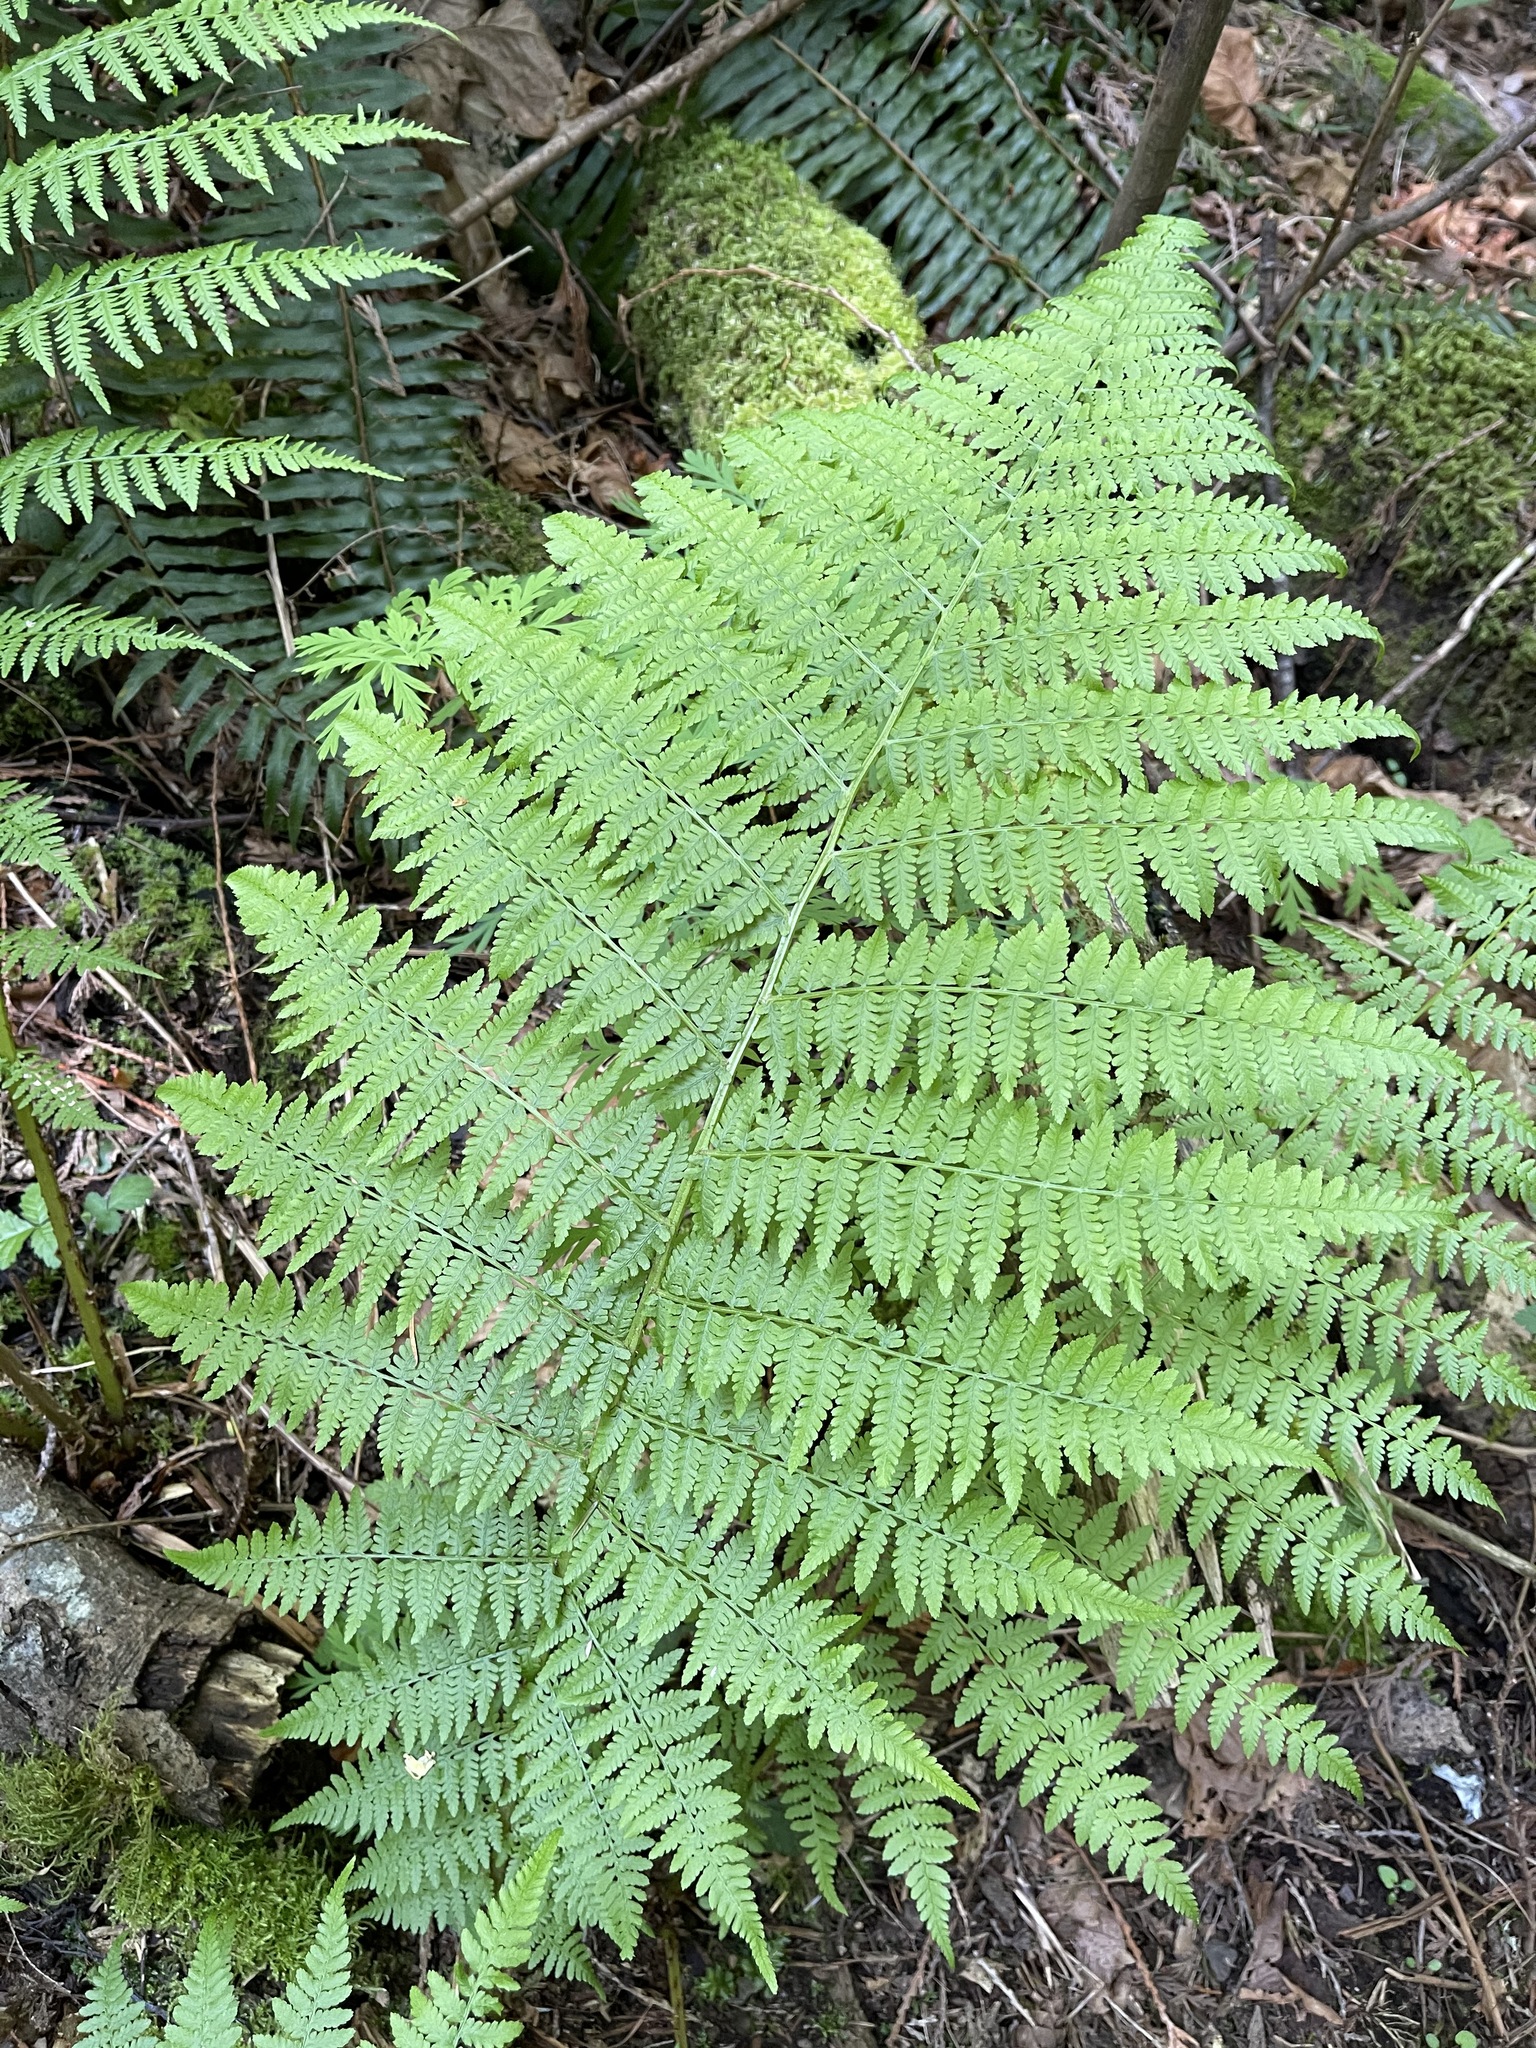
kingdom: Plantae
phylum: Tracheophyta
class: Polypodiopsida
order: Polypodiales
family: Athyriaceae
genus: Athyrium
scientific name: Athyrium filix-femina
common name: Lady fern
